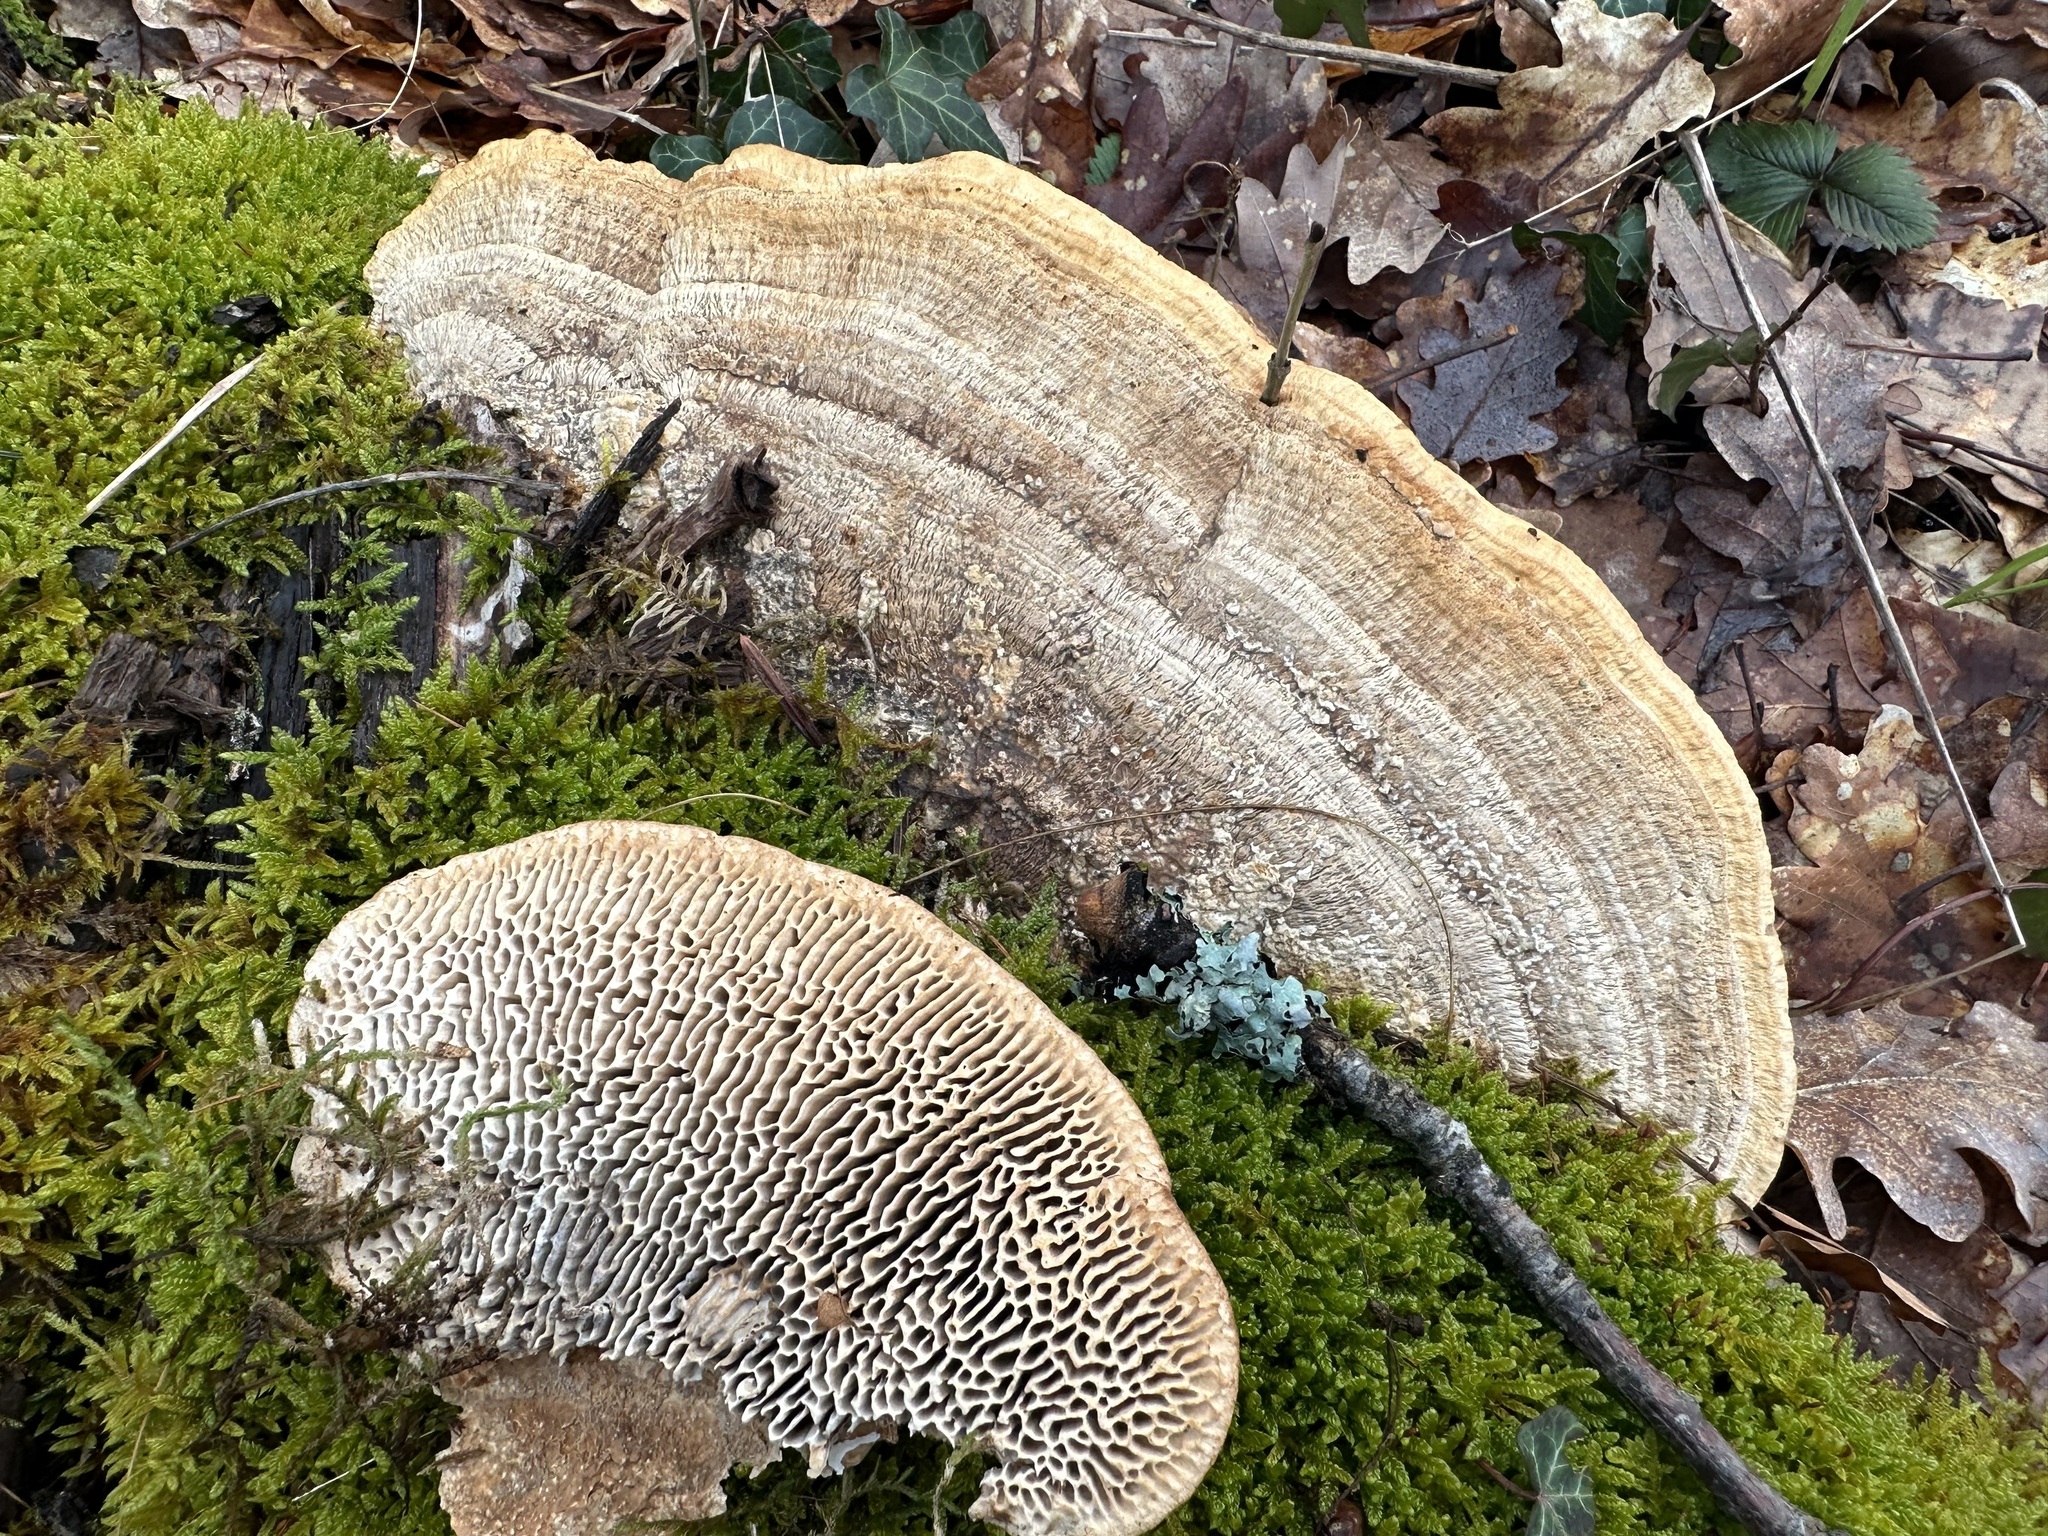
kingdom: Fungi
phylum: Basidiomycota
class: Agaricomycetes
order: Polyporales
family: Fomitopsidaceae
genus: Fomitopsis
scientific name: Fomitopsis
